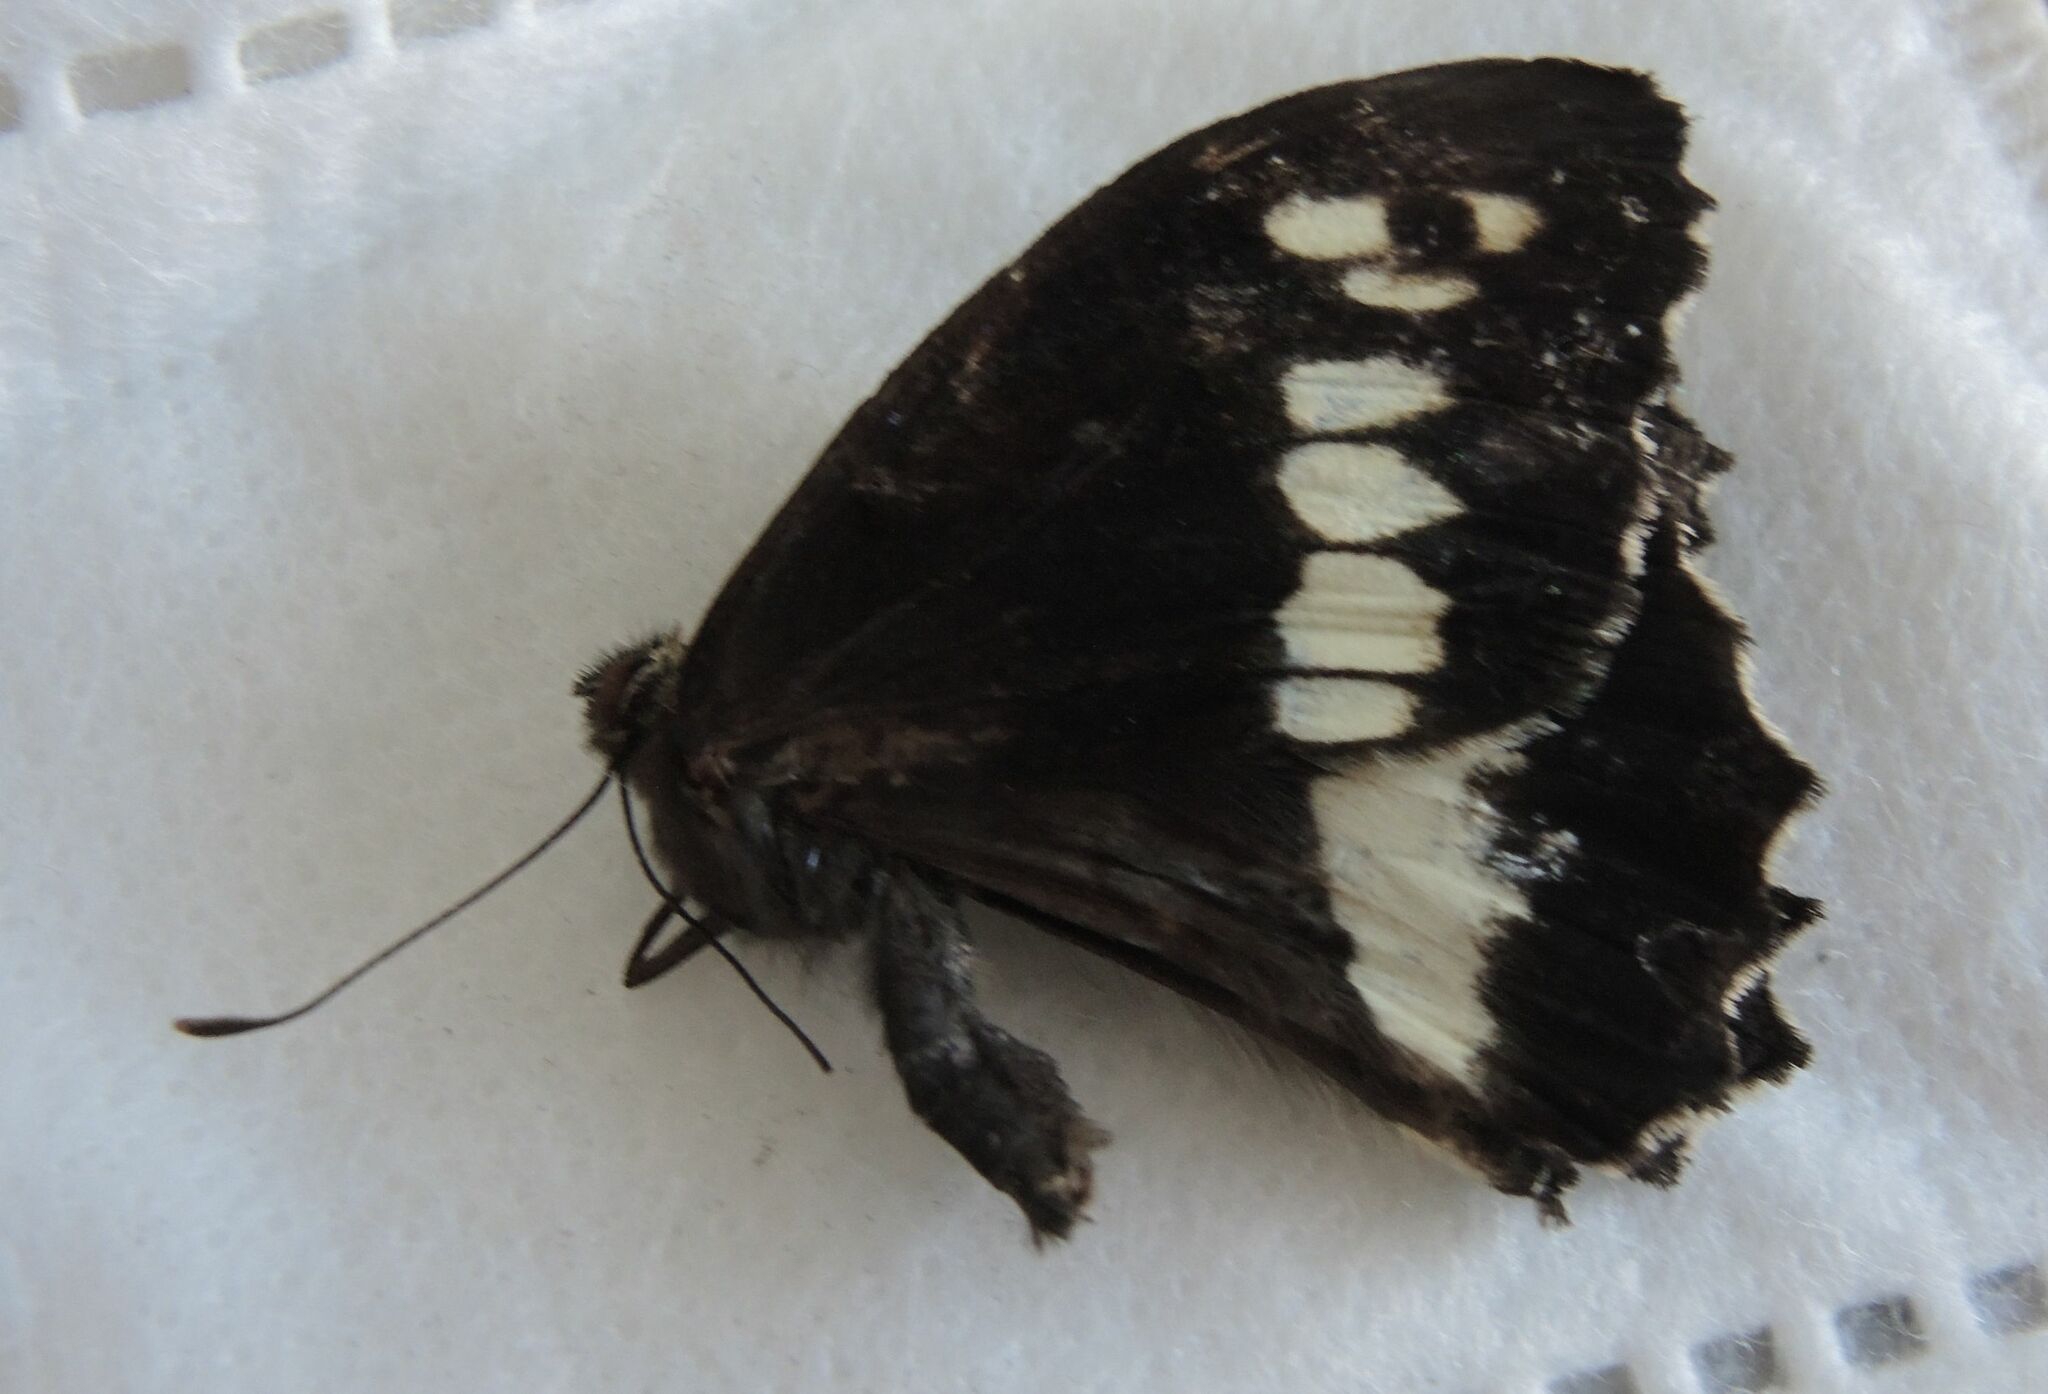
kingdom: Animalia
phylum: Arthropoda
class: Insecta
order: Lepidoptera
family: Lycaenidae
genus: Loweia
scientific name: Loweia tityrus
